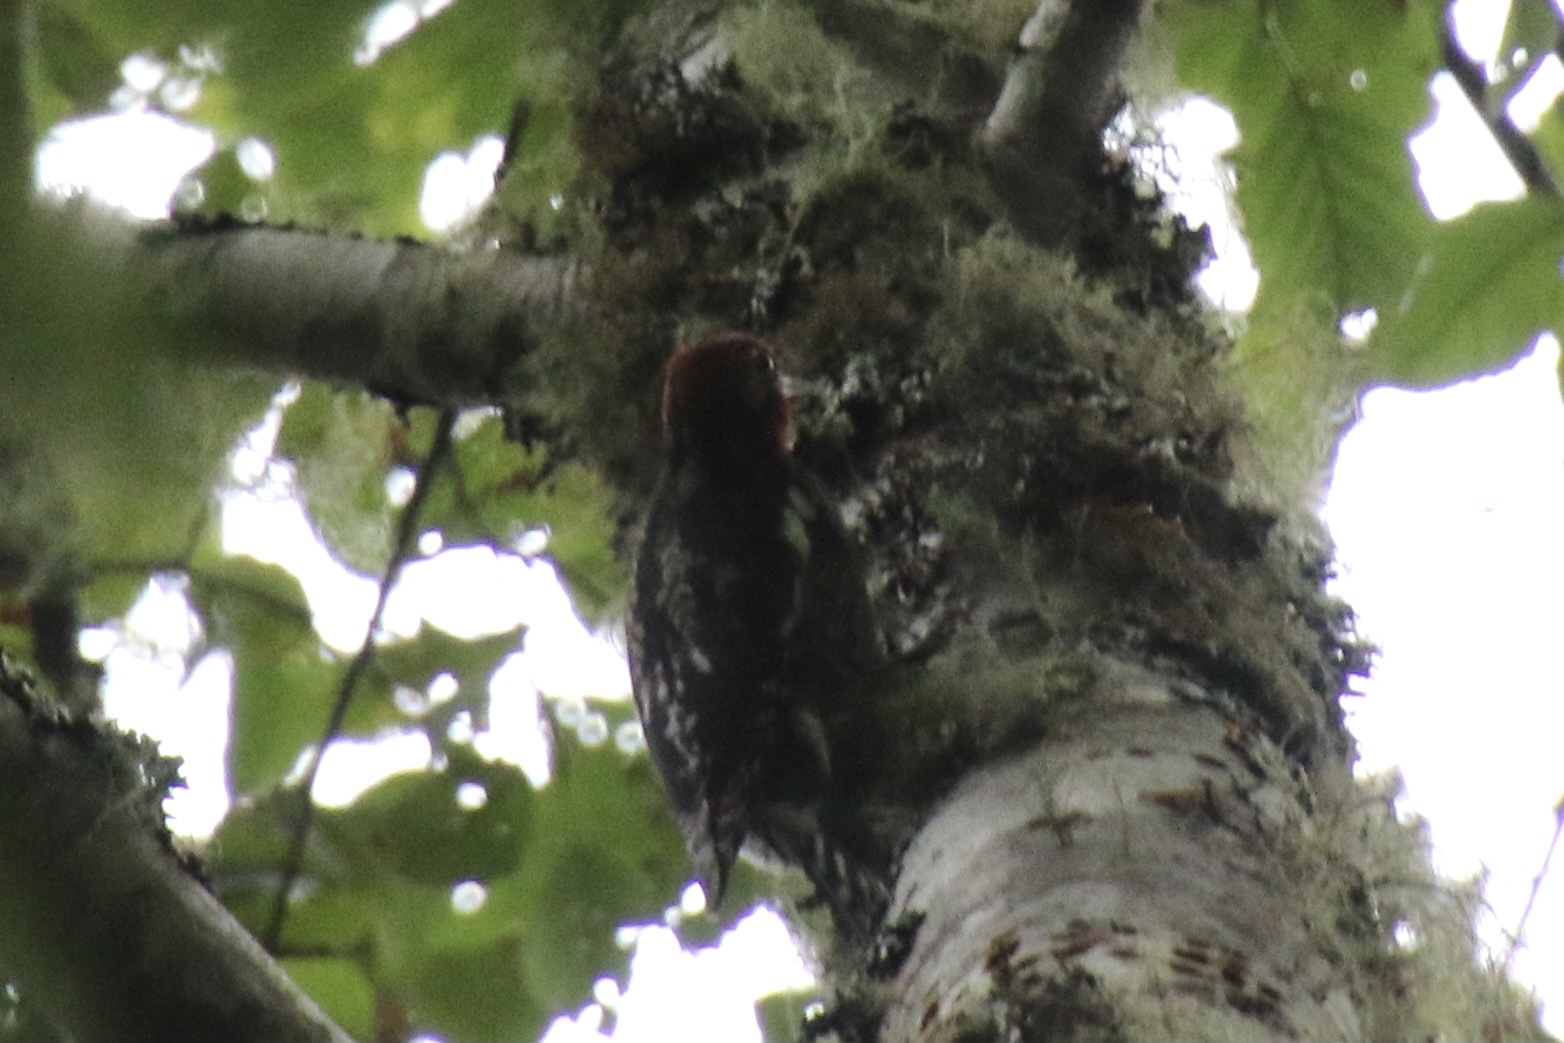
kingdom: Animalia
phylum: Chordata
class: Aves
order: Piciformes
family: Picidae
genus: Sphyrapicus
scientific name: Sphyrapicus ruber
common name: Red-breasted sapsucker
